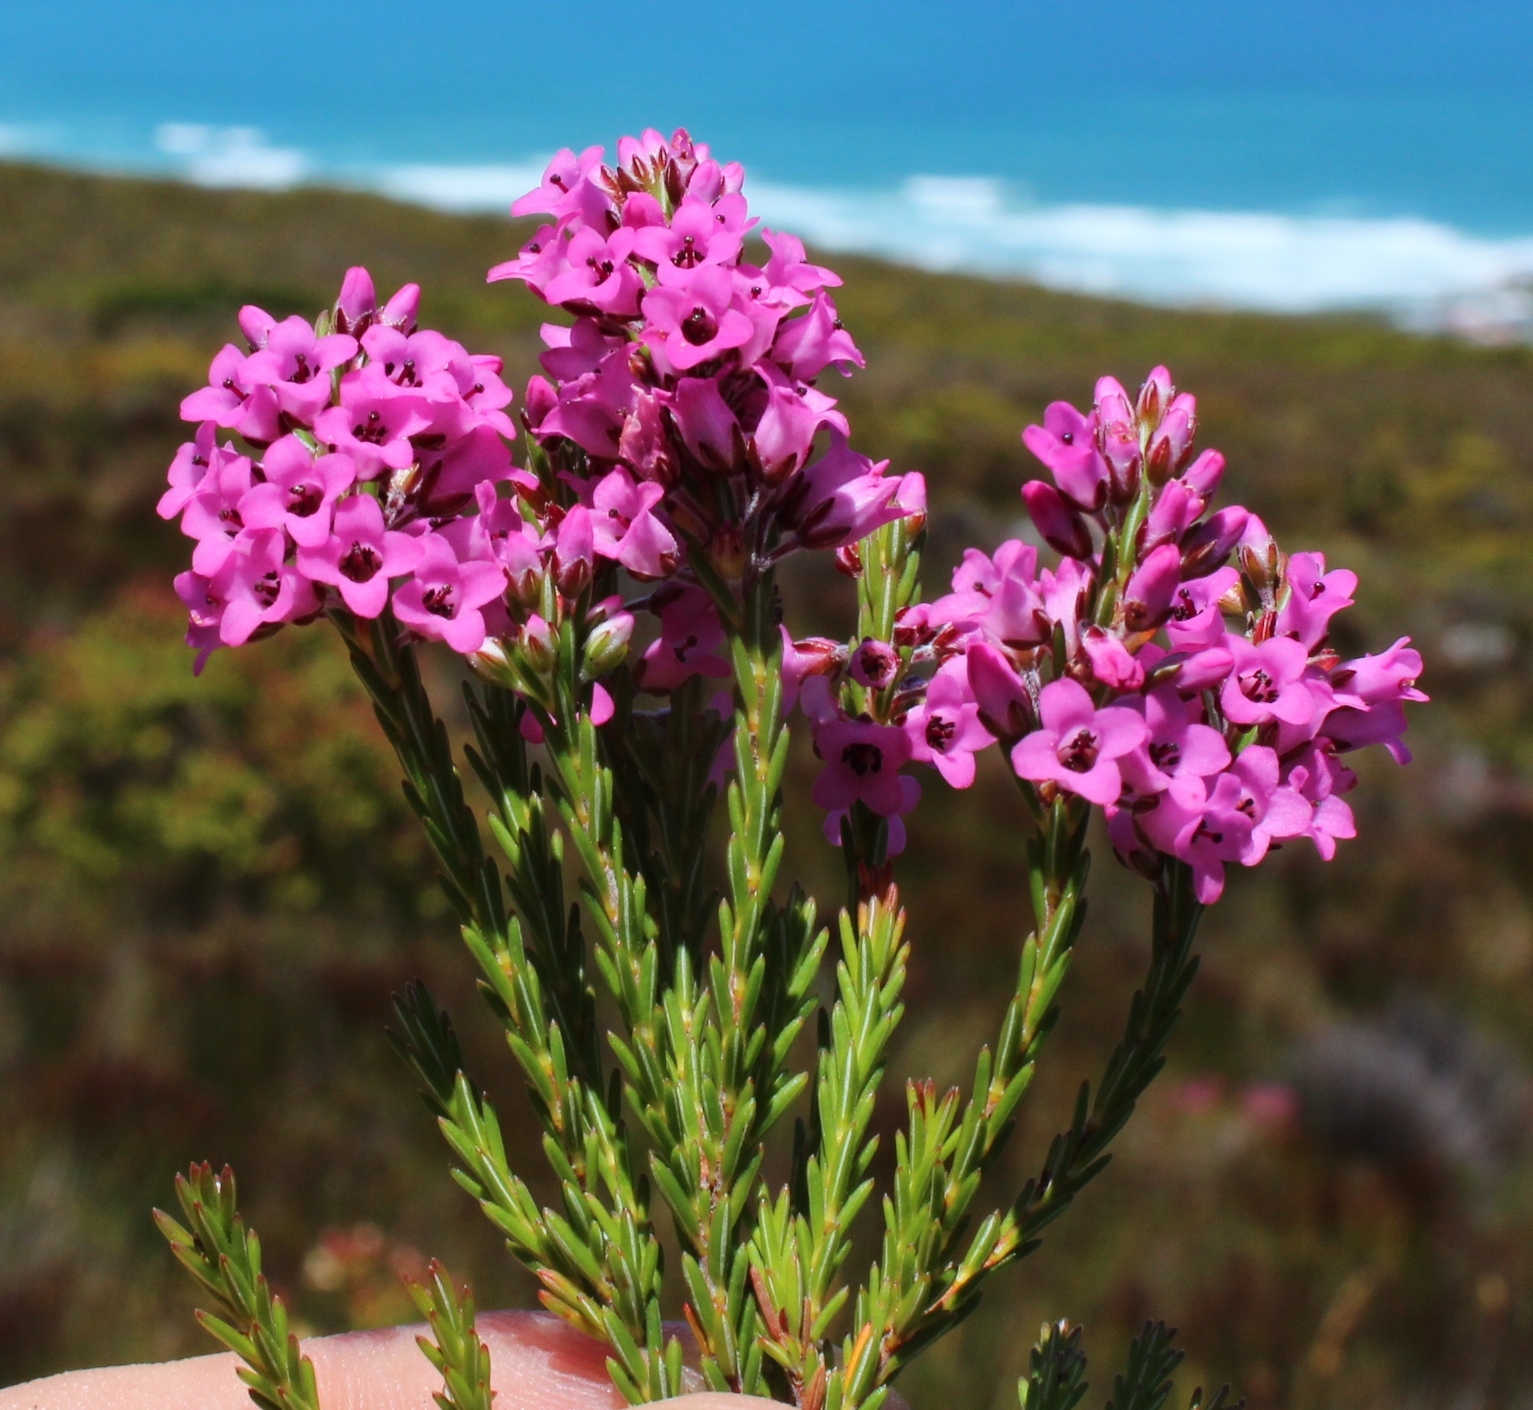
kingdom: Plantae
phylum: Tracheophyta
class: Magnoliopsida
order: Ericales
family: Ericaceae
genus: Erica
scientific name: Erica pulchella
